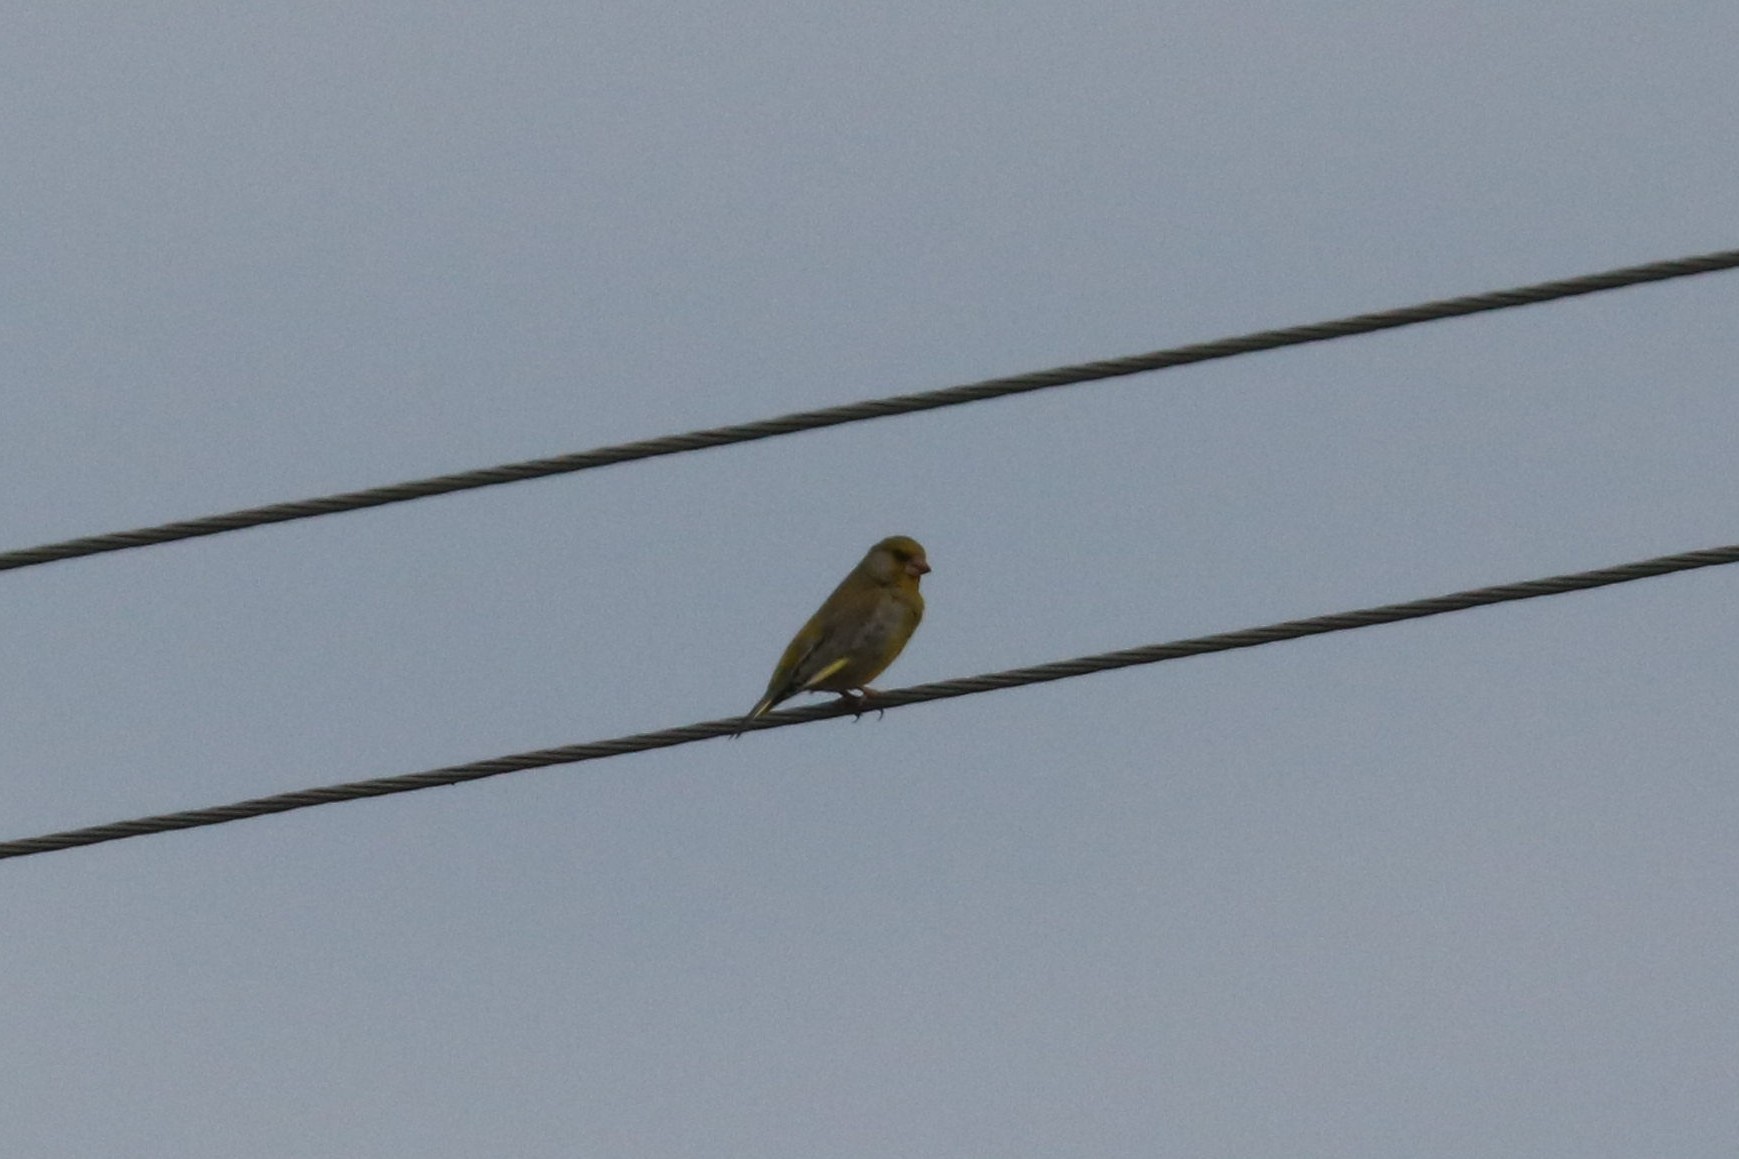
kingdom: Plantae
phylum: Tracheophyta
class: Liliopsida
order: Poales
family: Poaceae
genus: Chloris
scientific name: Chloris chloris
